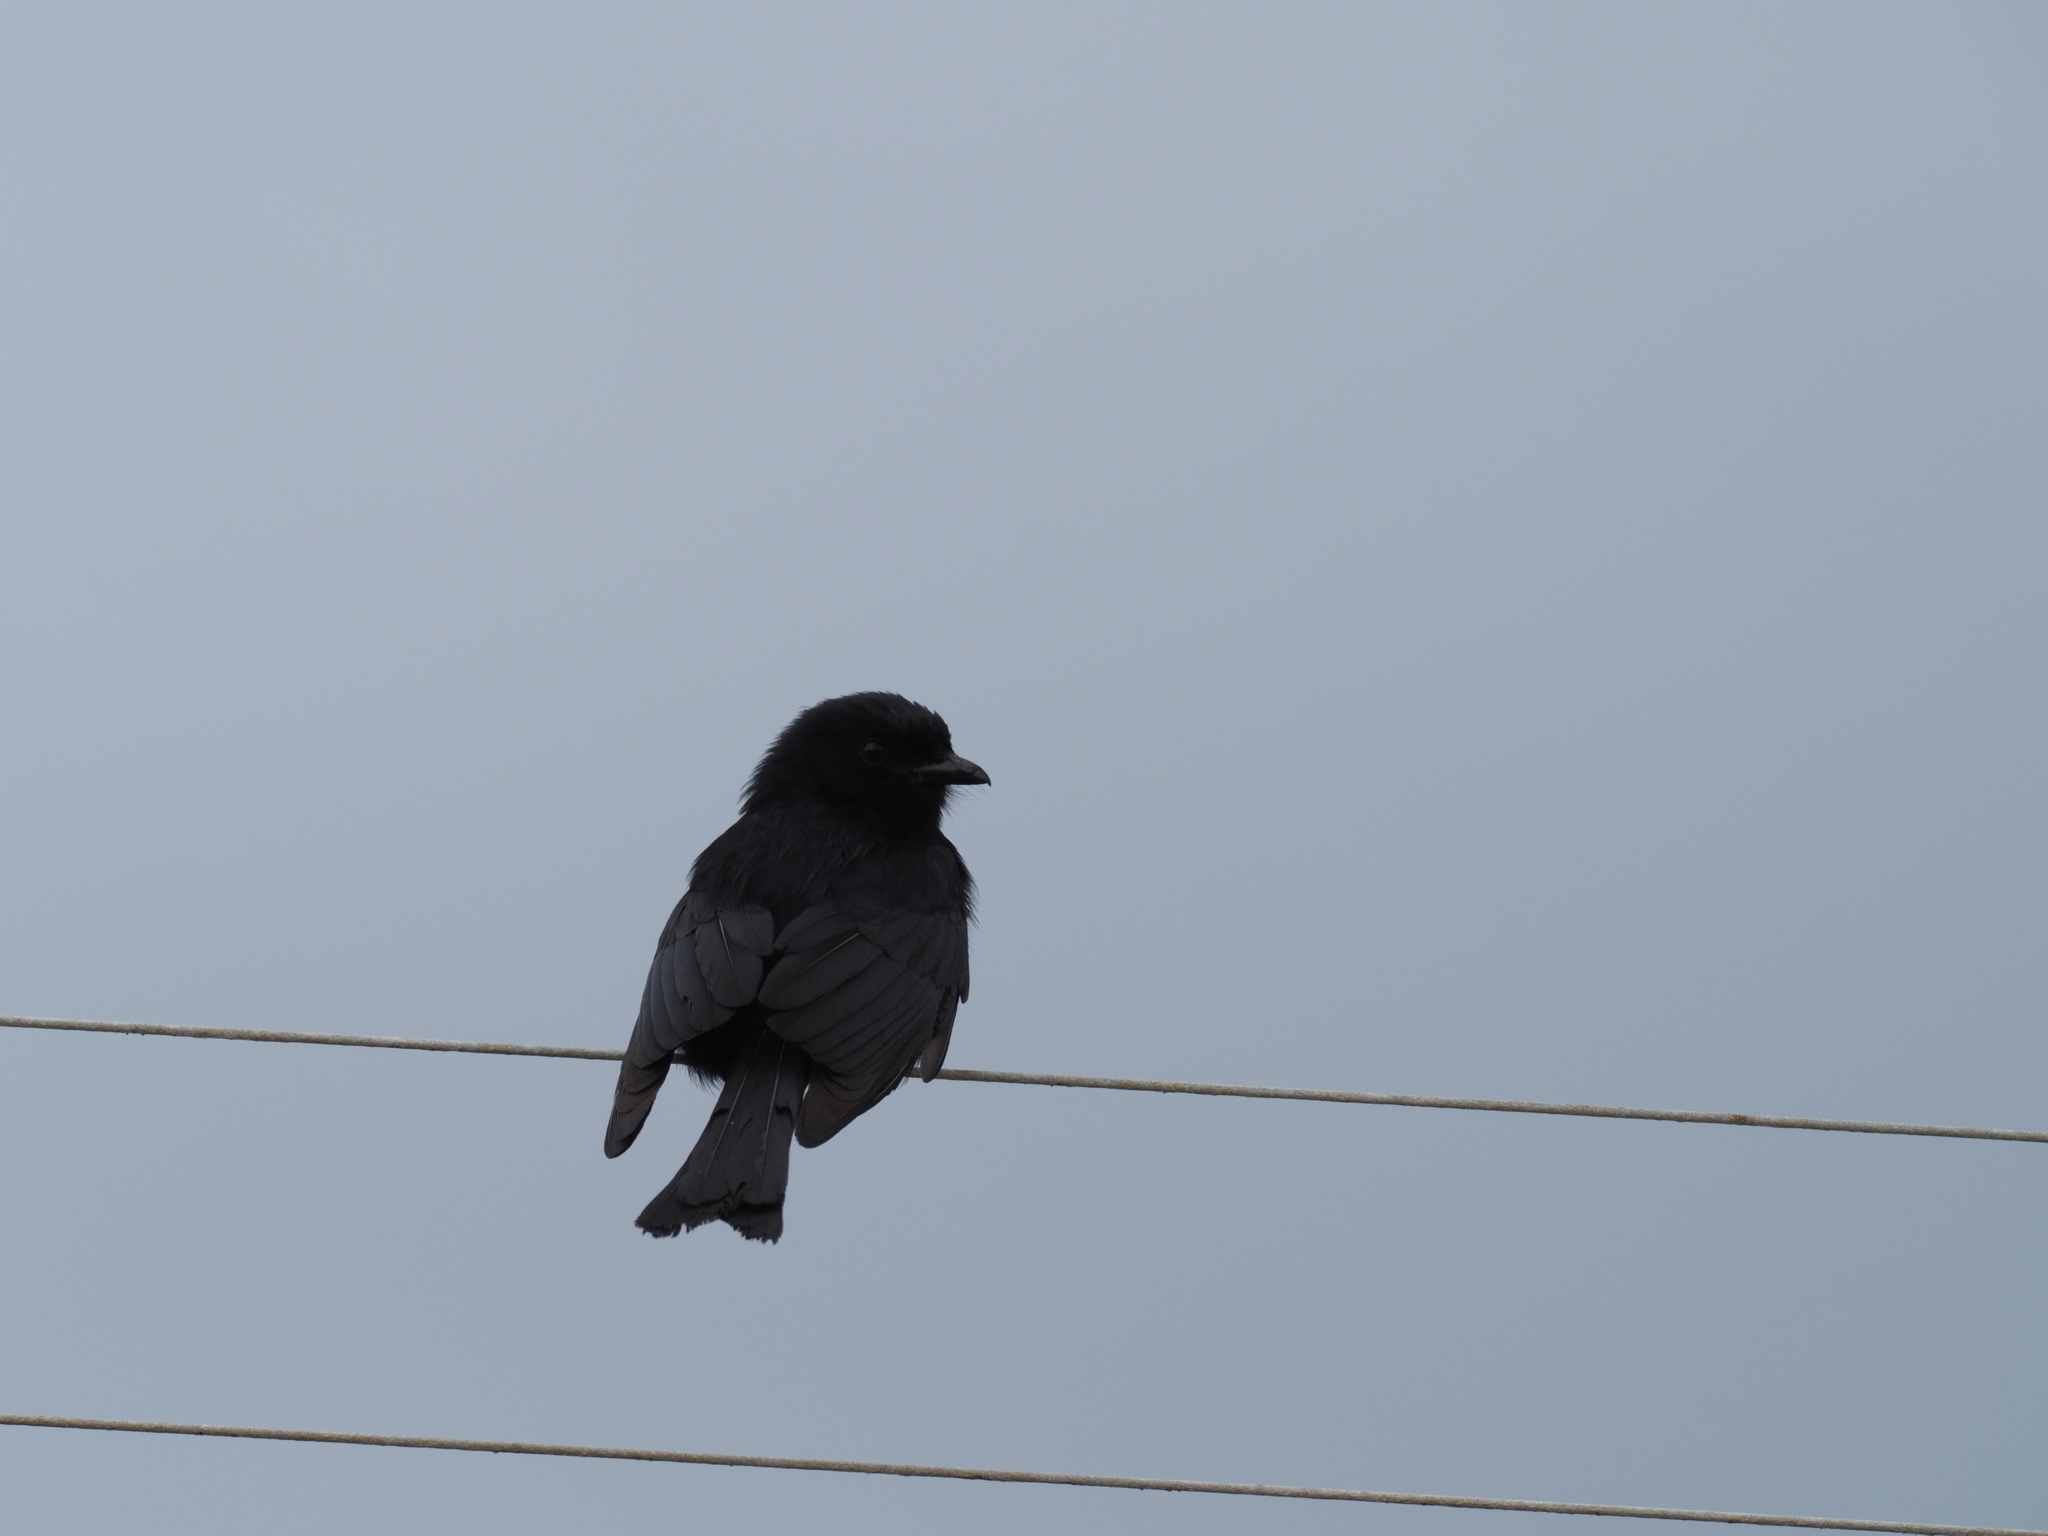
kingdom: Animalia
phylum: Chordata
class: Aves
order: Passeriformes
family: Dicruridae
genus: Dicrurus
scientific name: Dicrurus adsimilis
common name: Fork-tailed drongo
